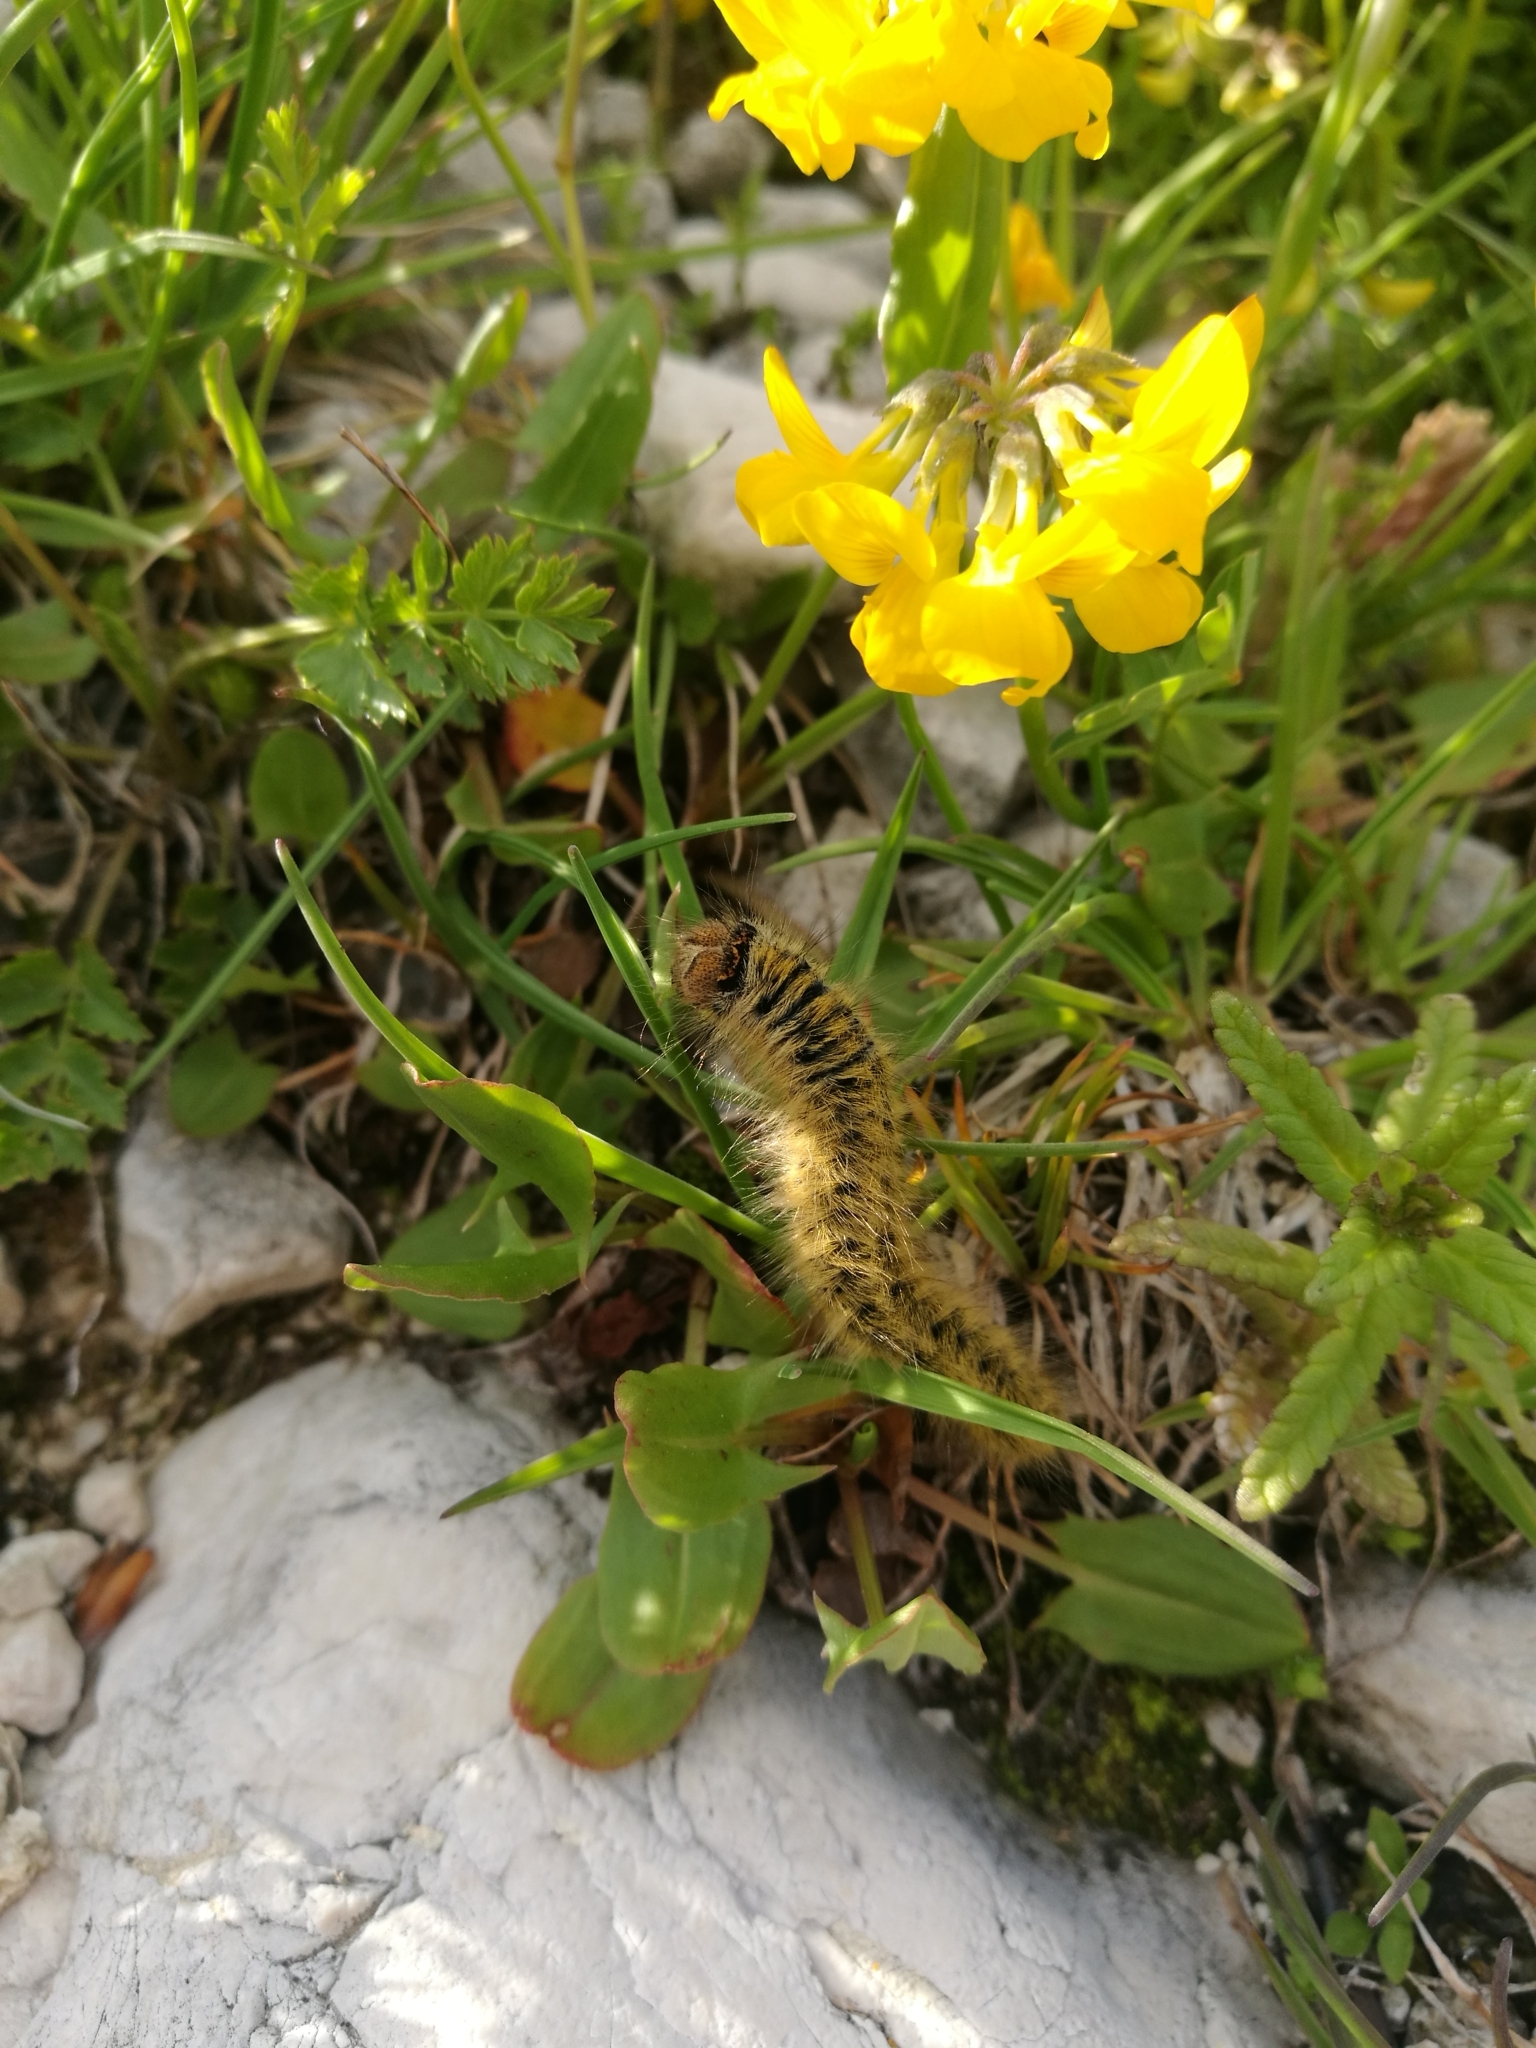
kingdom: Animalia
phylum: Arthropoda
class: Insecta
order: Lepidoptera
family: Lasiocampidae
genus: Lasiocampa
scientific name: Lasiocampa trifolii
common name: Grass eggar
